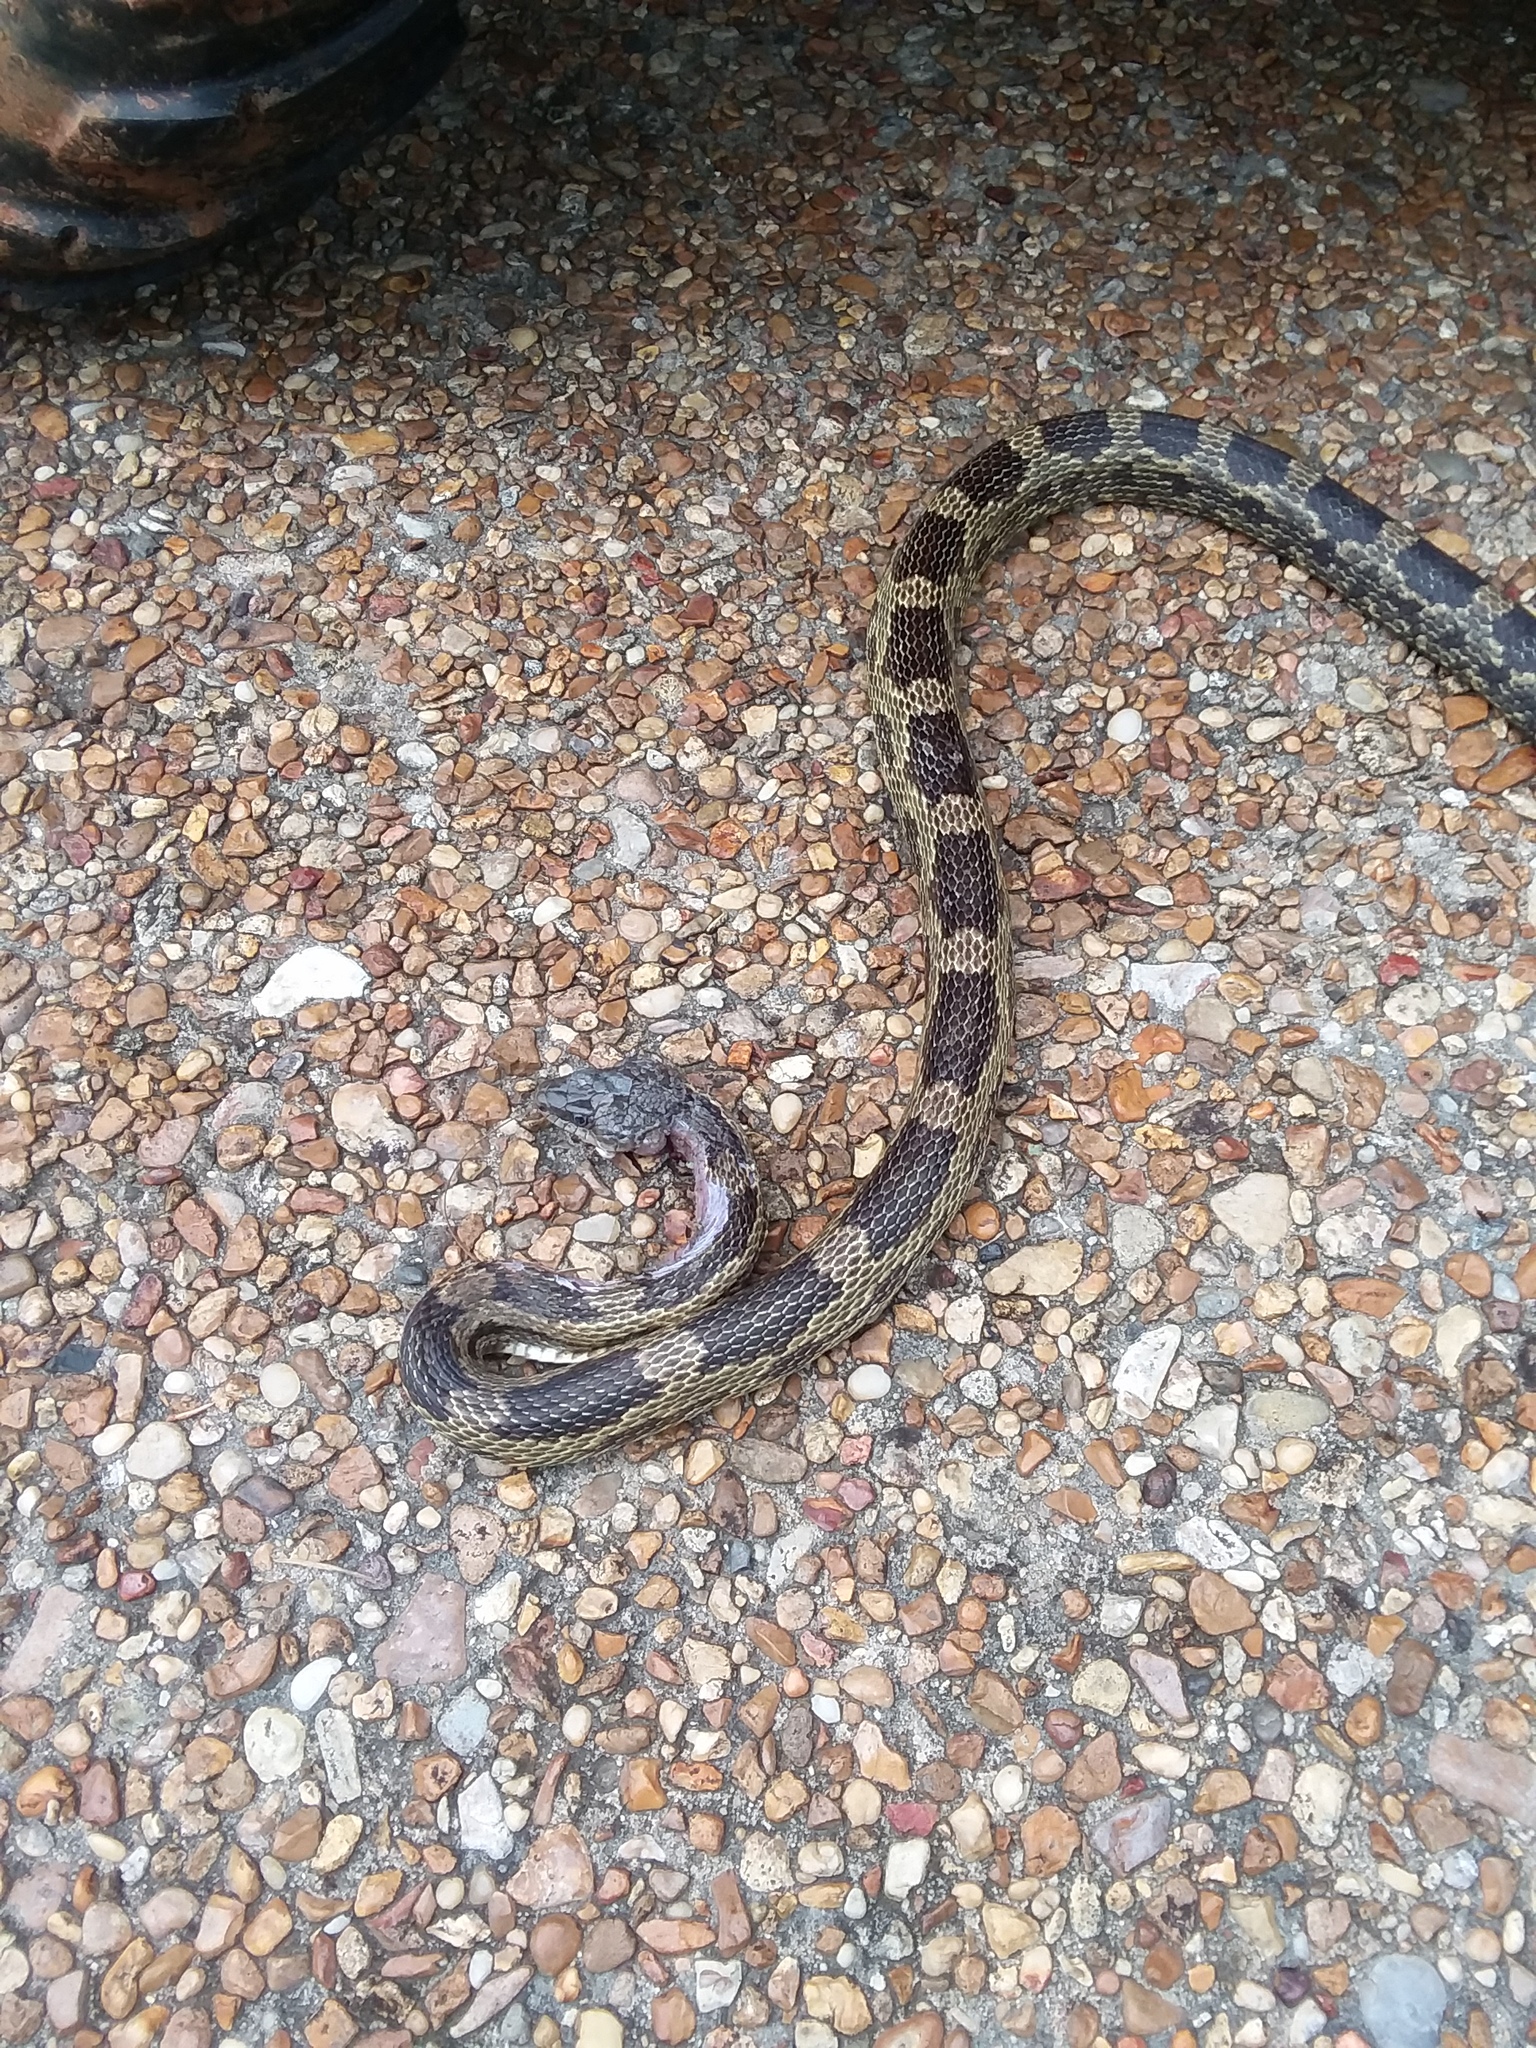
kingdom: Animalia
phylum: Chordata
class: Squamata
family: Colubridae
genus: Pantherophis
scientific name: Pantherophis spiloides
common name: Gray rat snake
